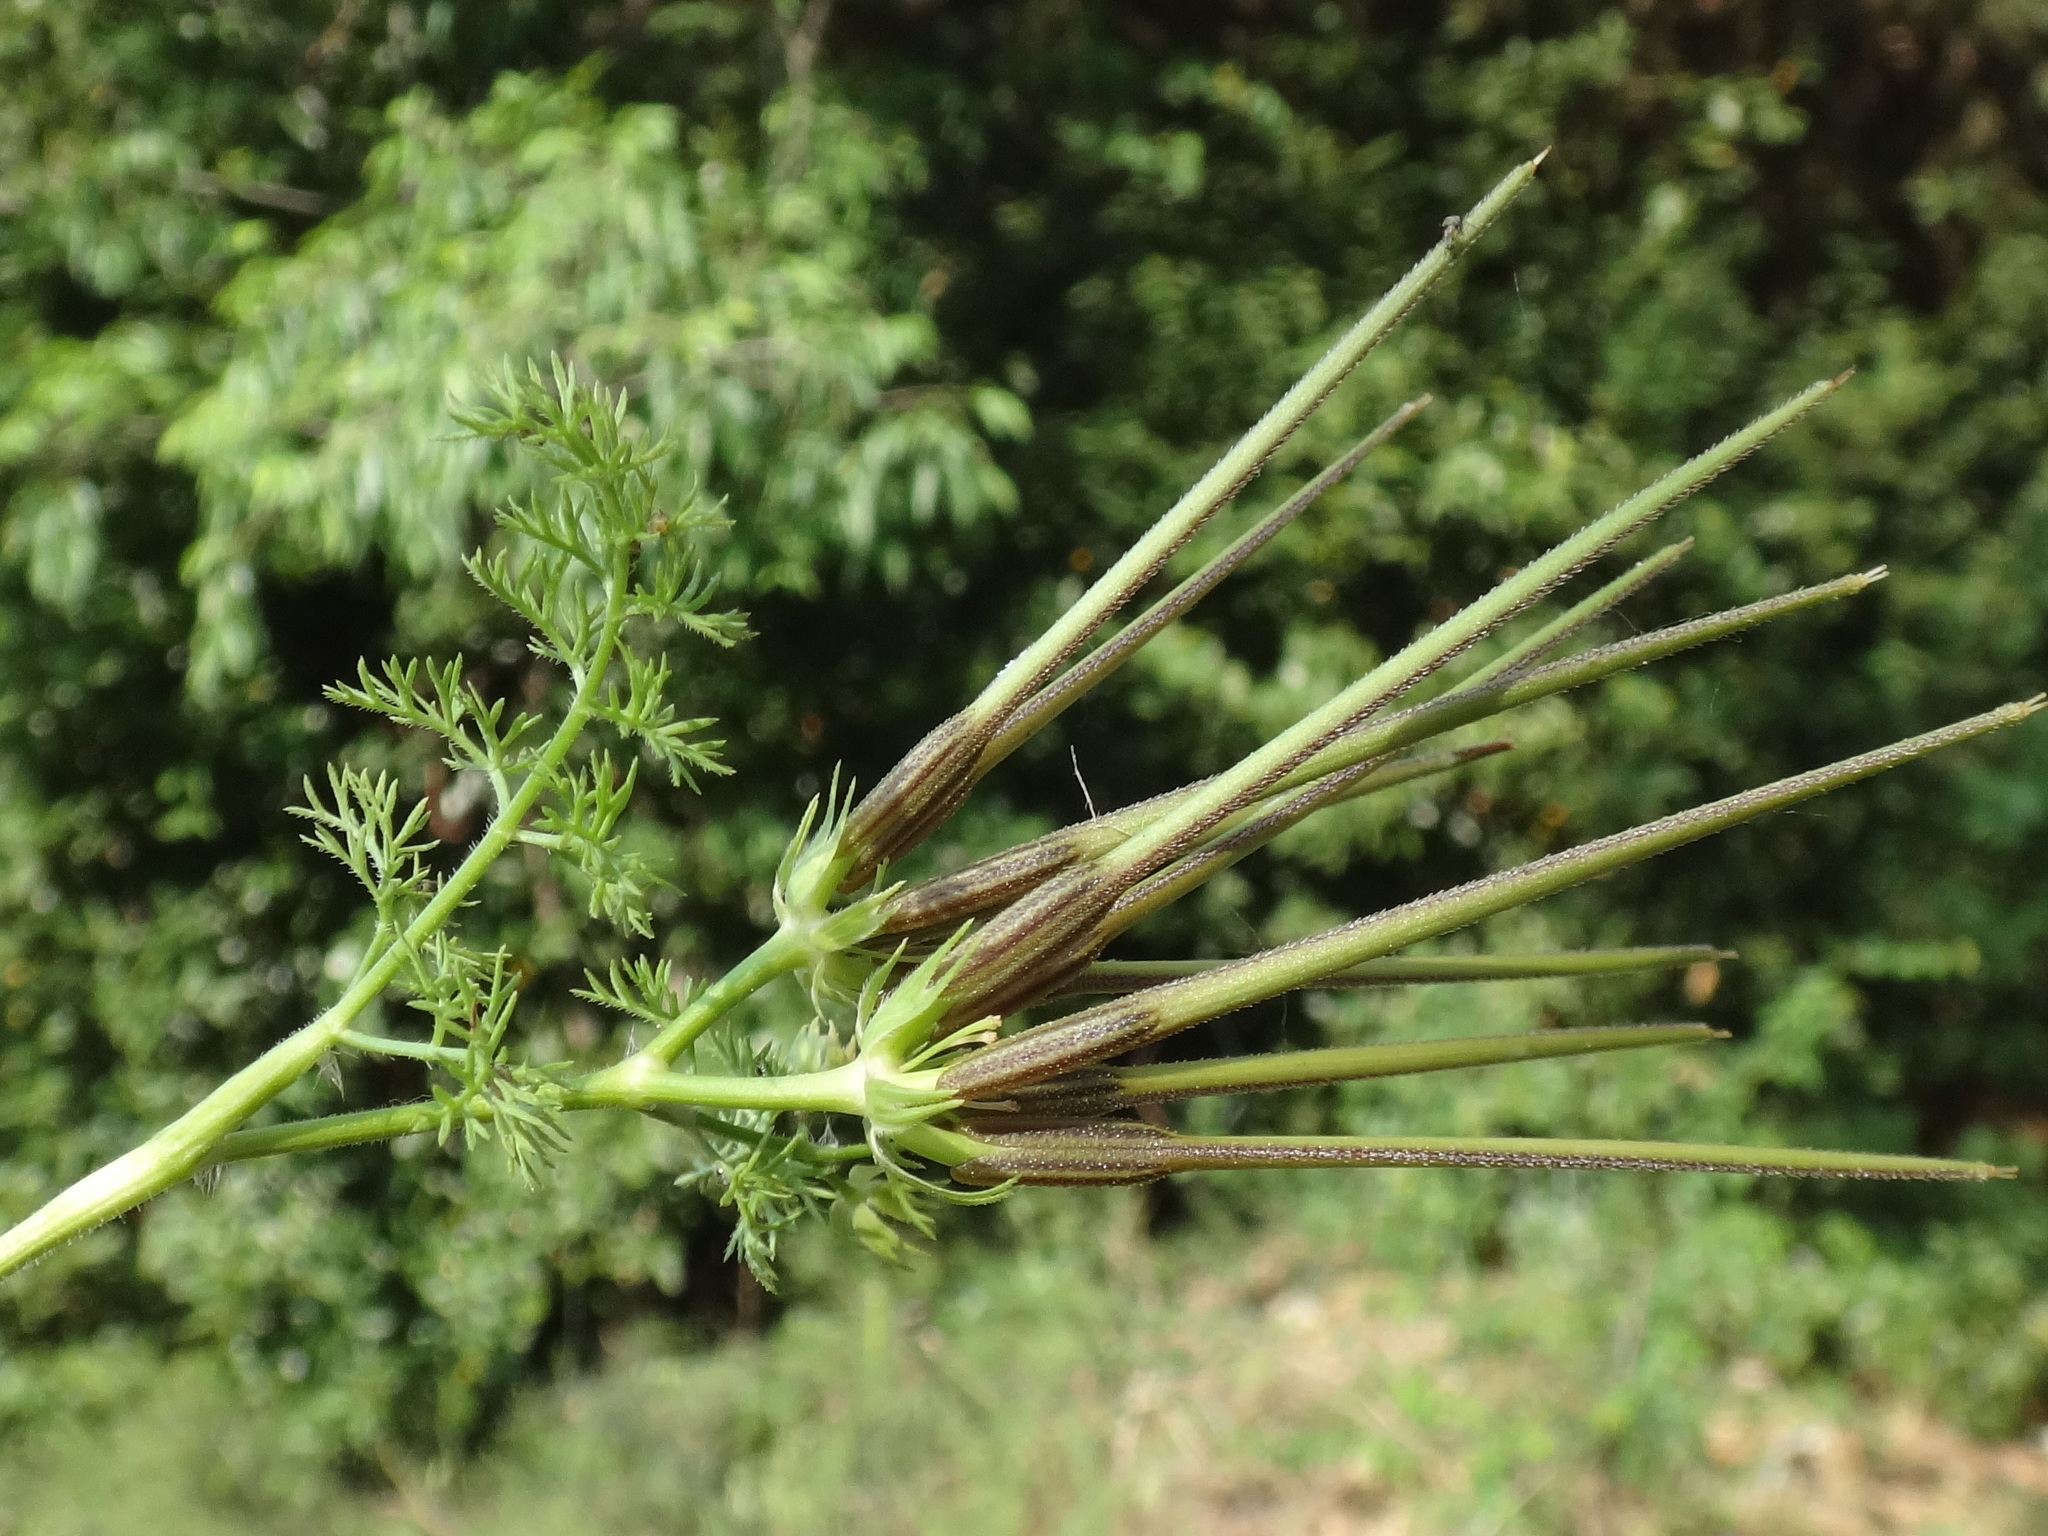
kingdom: Plantae
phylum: Tracheophyta
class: Magnoliopsida
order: Apiales
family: Apiaceae
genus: Scandix
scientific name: Scandix pecten-veneris
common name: Shepherd's-needle
